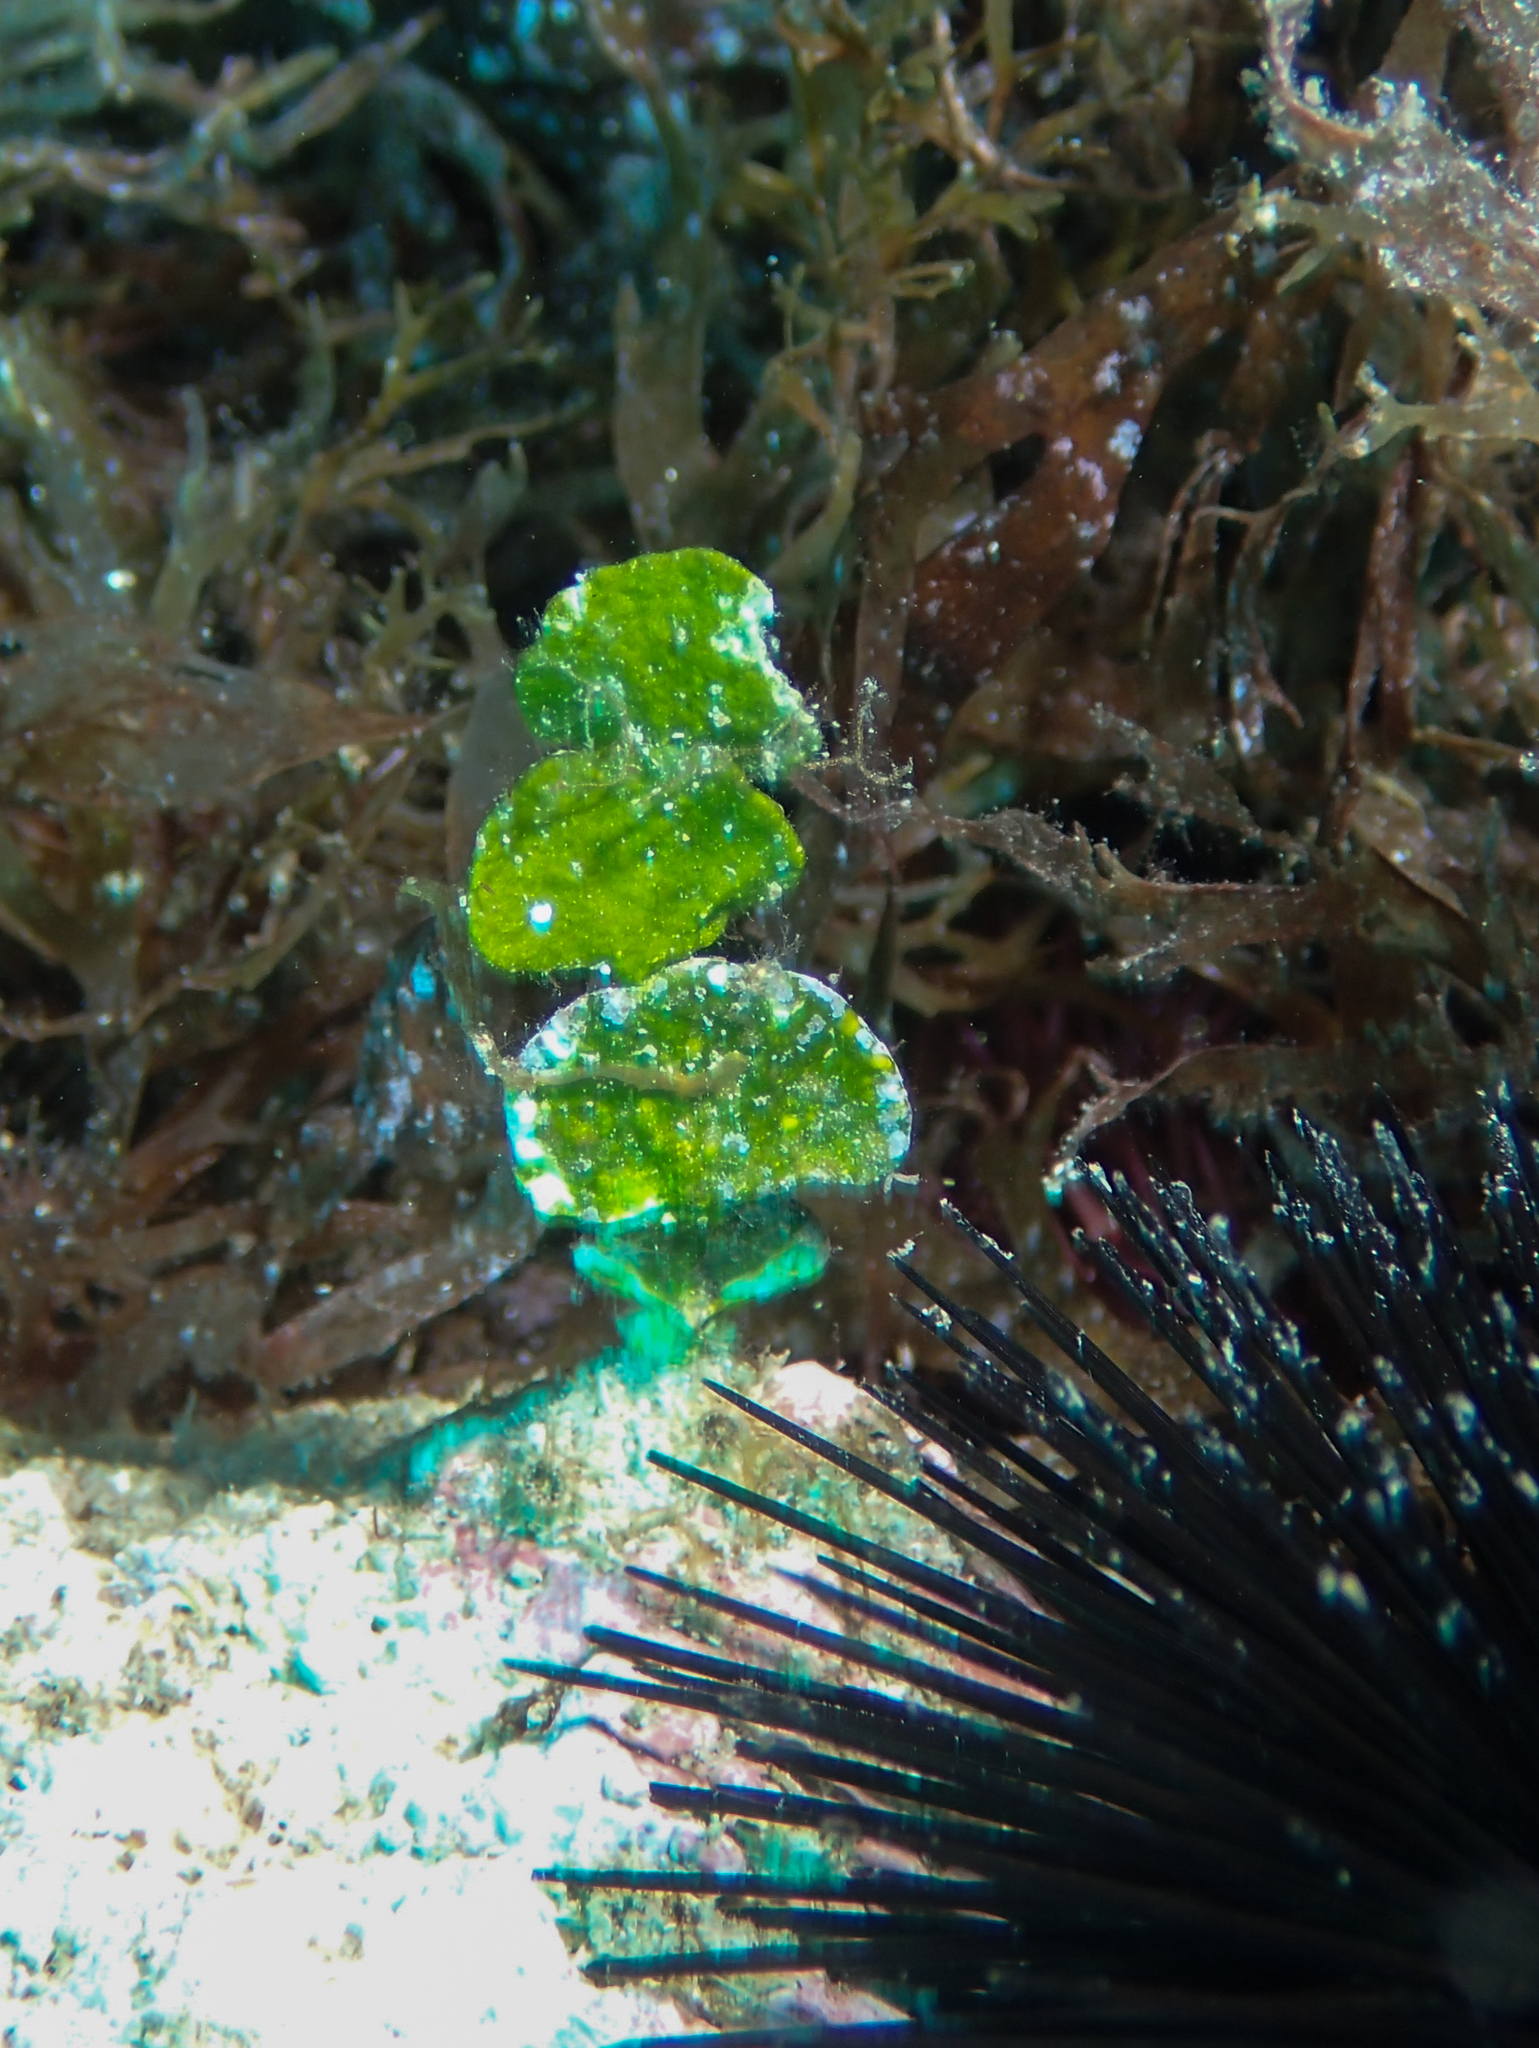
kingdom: Plantae
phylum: Chlorophyta
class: Ulvophyceae
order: Bryopsidales
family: Halimedaceae
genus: Halimeda
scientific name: Halimeda tuna
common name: Stalked lettuce leaf algae
